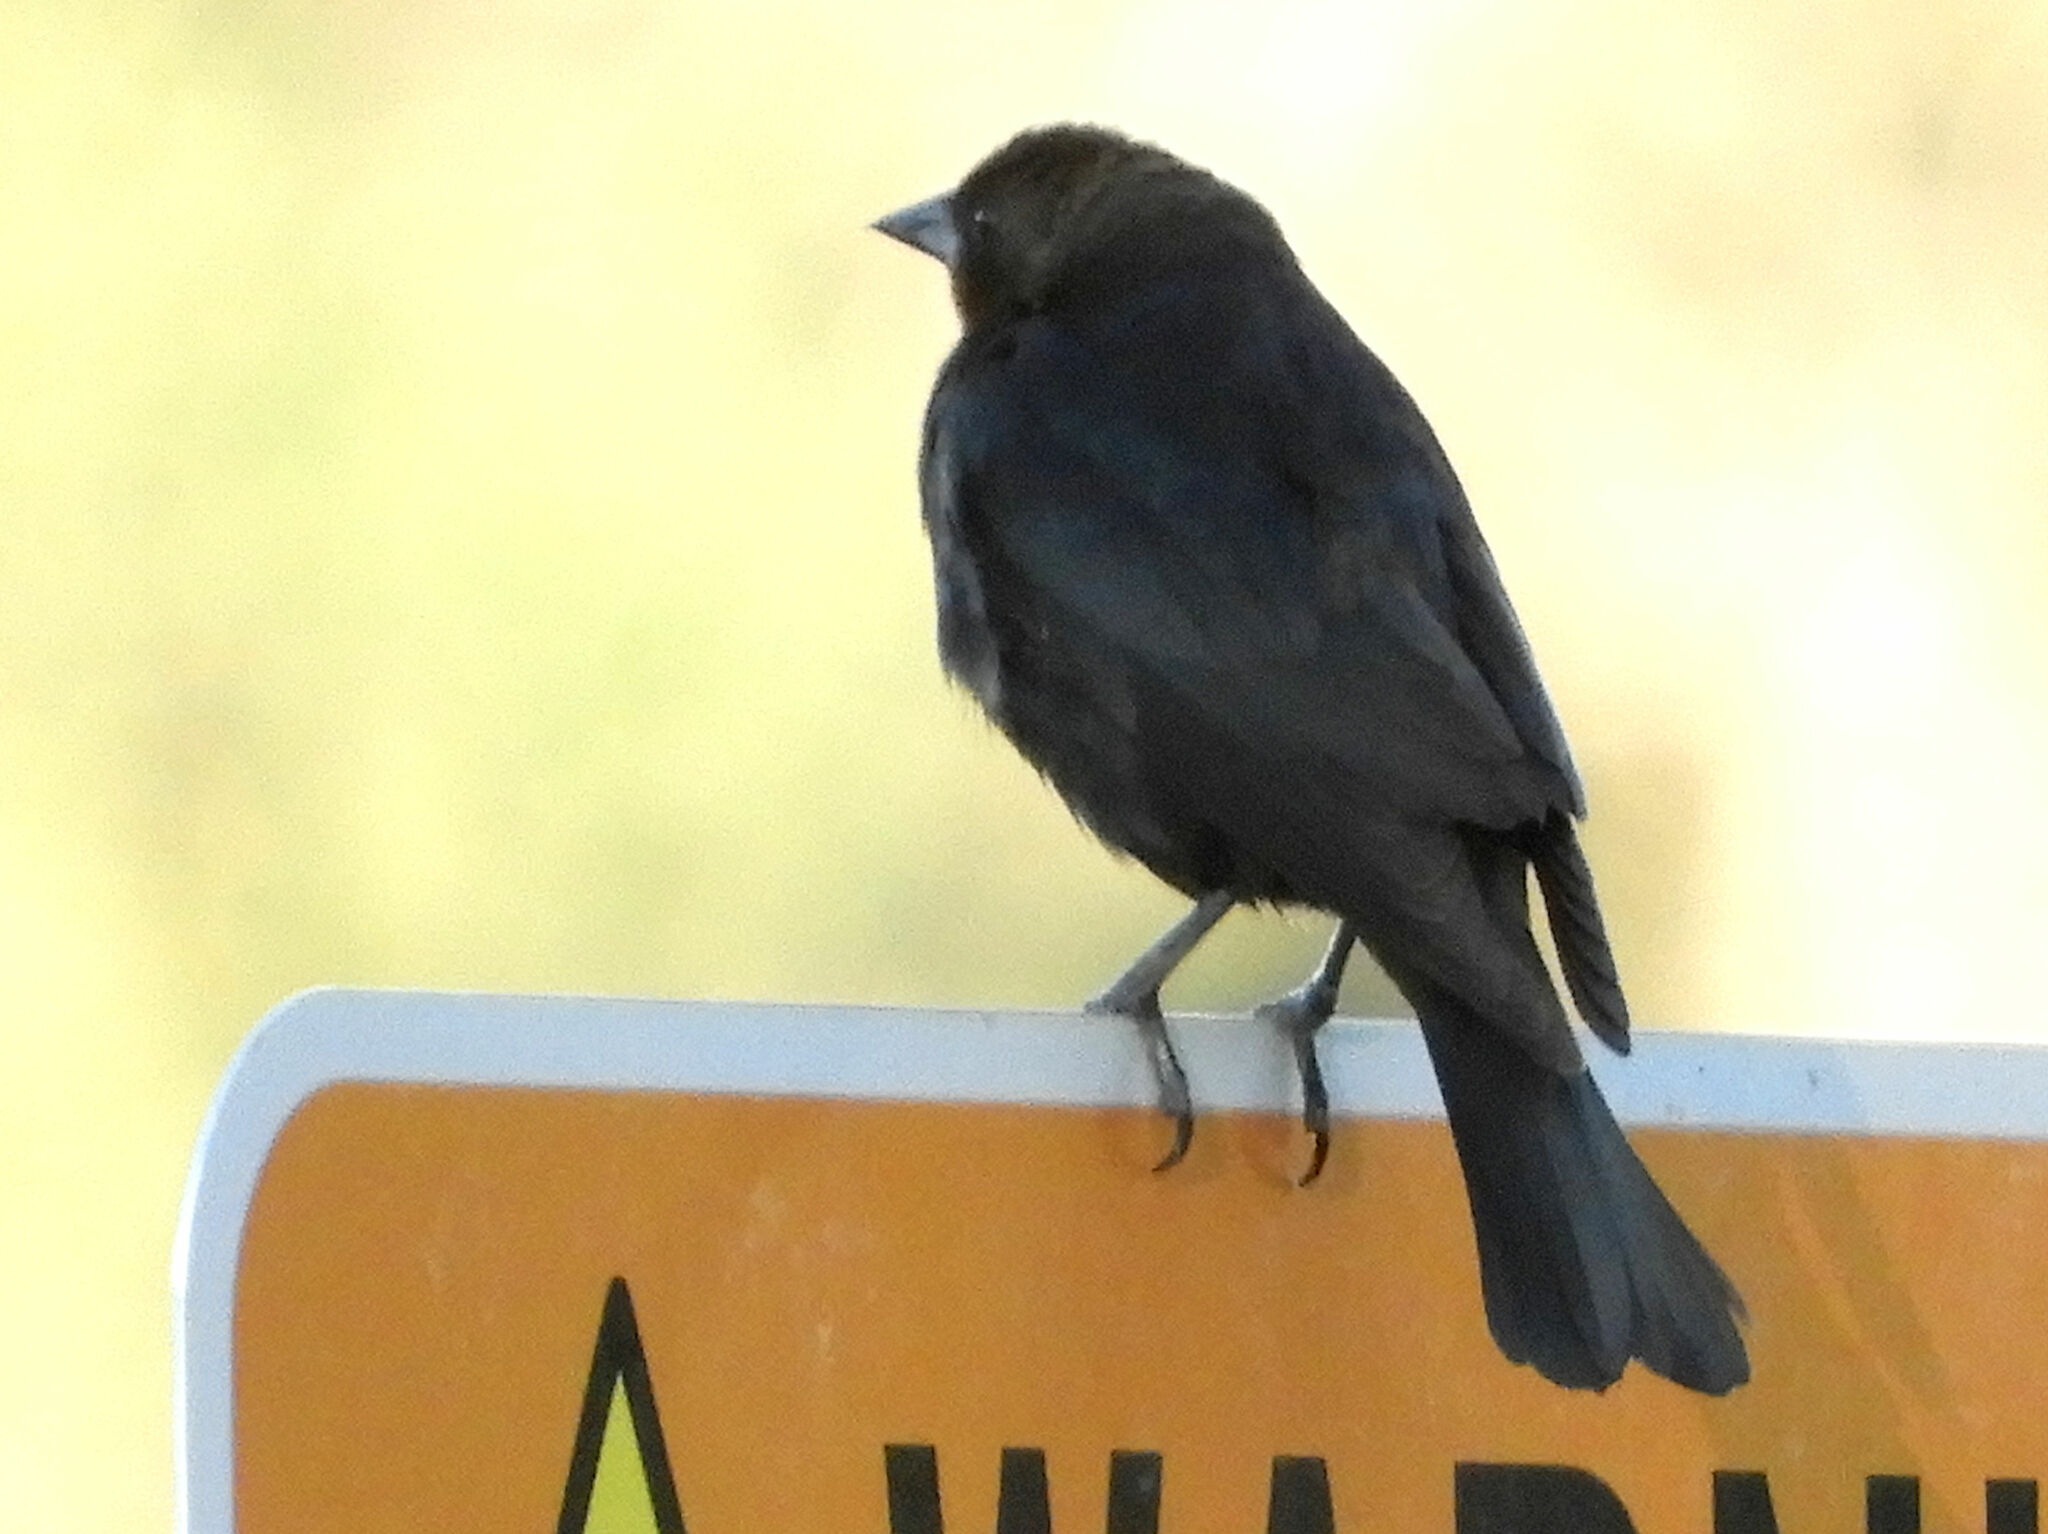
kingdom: Animalia
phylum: Chordata
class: Aves
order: Passeriformes
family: Icteridae
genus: Molothrus
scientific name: Molothrus ater
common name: Brown-headed cowbird
